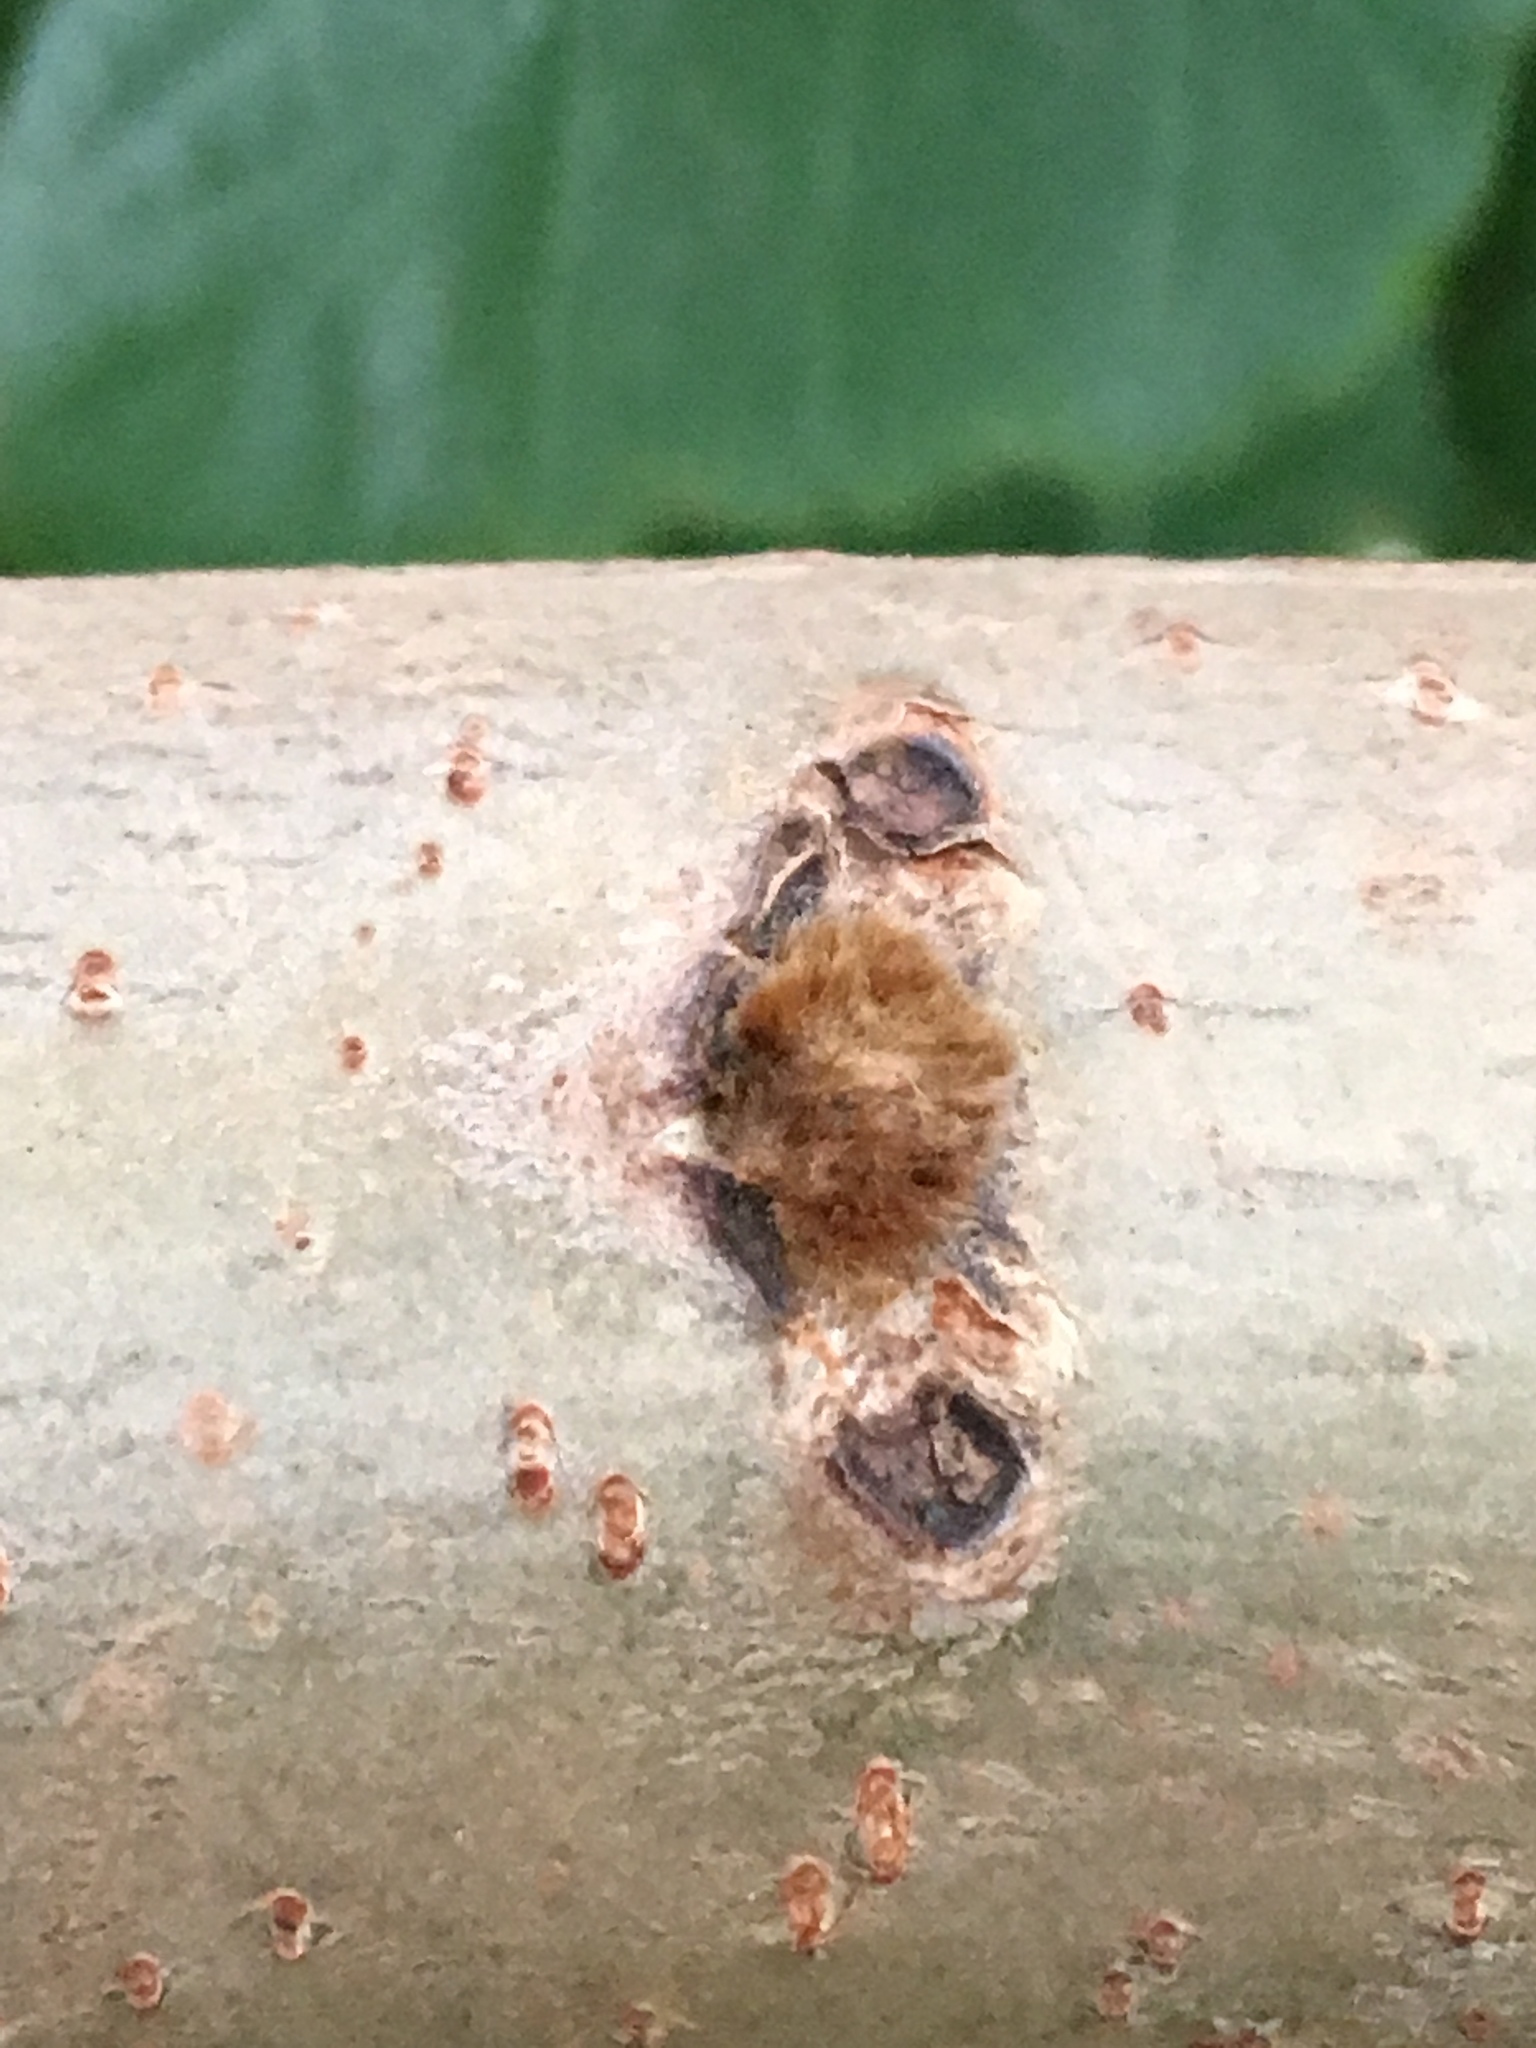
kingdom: Plantae
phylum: Tracheophyta
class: Magnoliopsida
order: Sapindales
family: Anacardiaceae
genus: Rhus
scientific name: Rhus typhina
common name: Staghorn sumac
